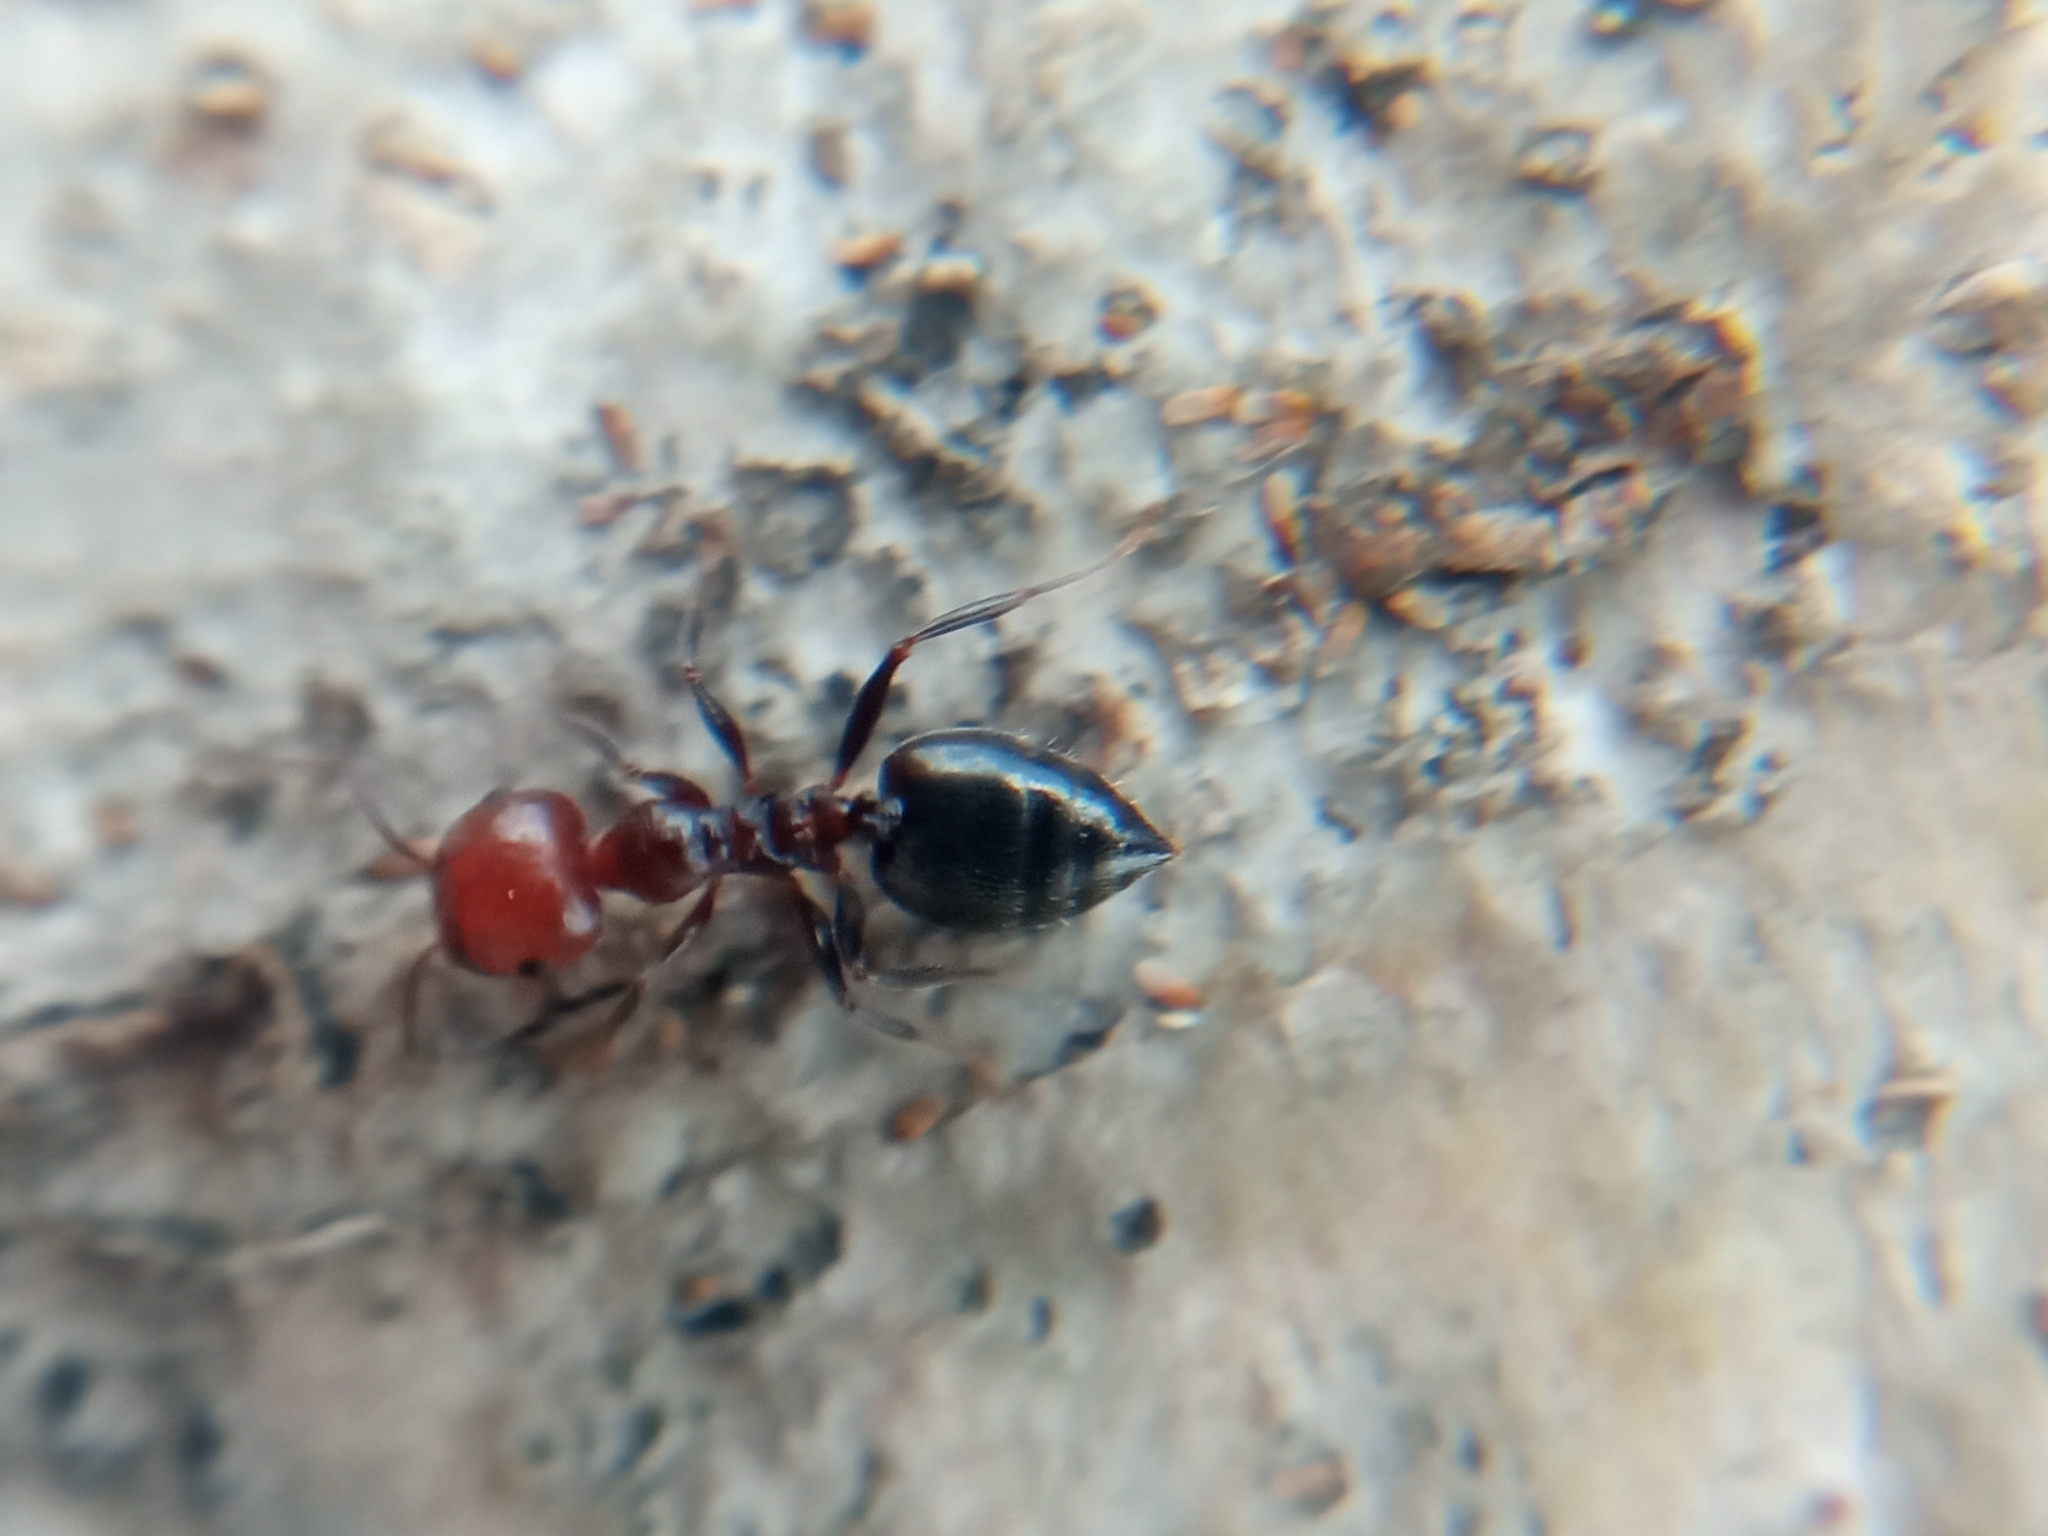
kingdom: Animalia
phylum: Arthropoda
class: Insecta
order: Hymenoptera
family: Formicidae
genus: Crematogaster
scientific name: Crematogaster scutellaris
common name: Fourmi du liège
